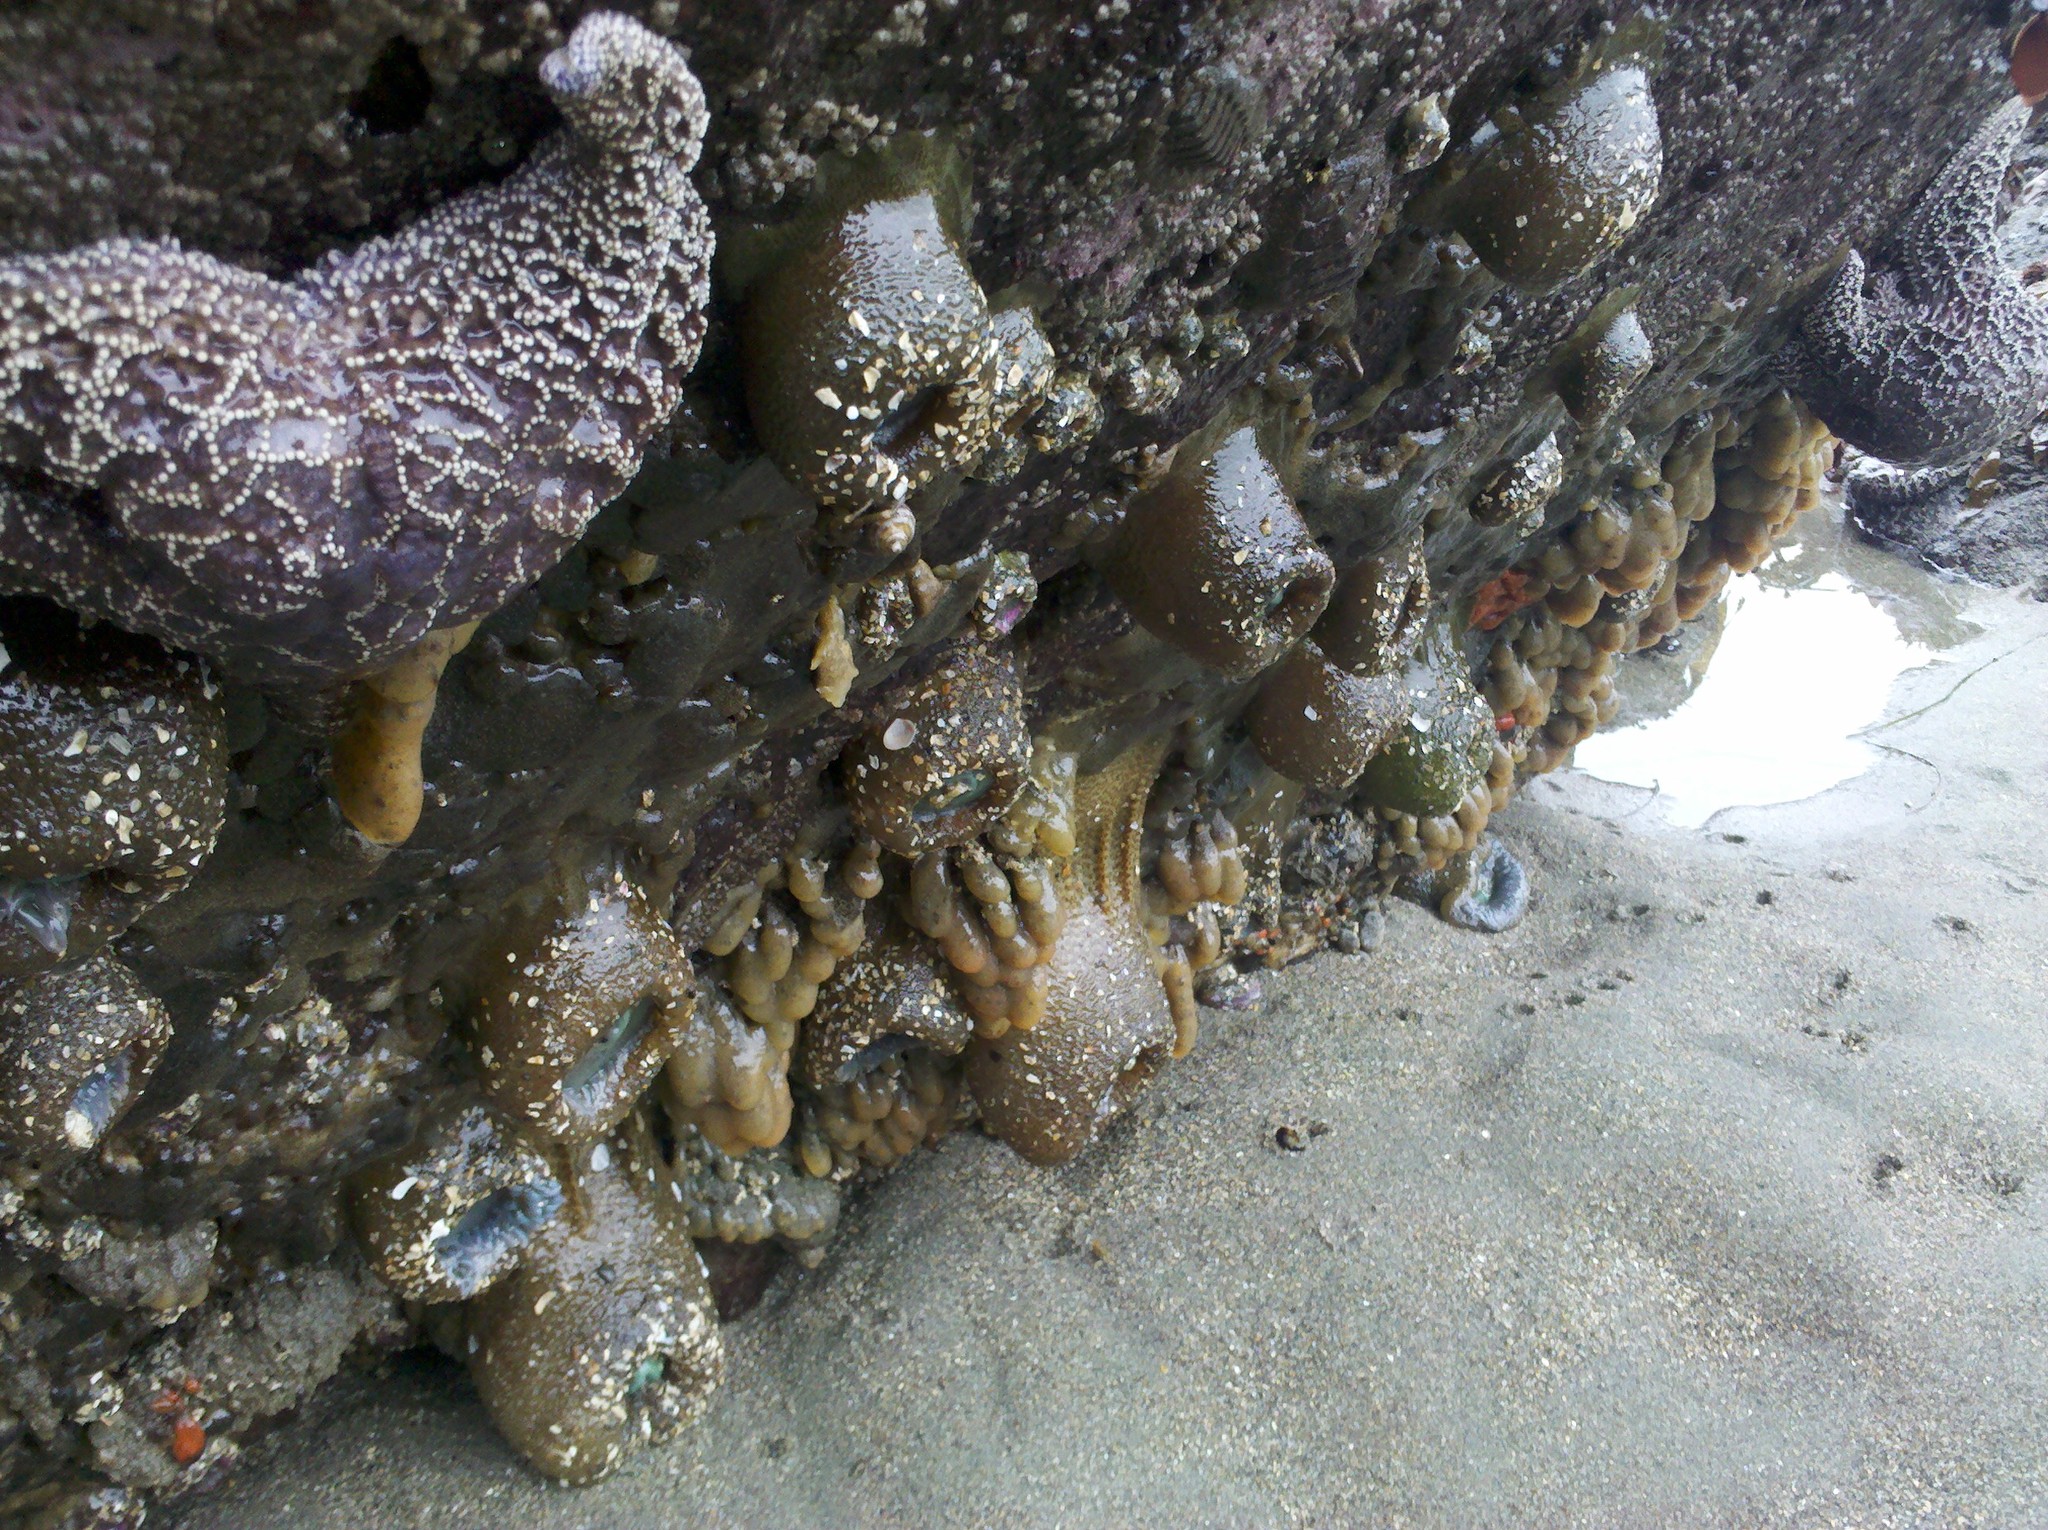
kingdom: Animalia
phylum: Echinodermata
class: Asteroidea
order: Forcipulatida
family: Asteriidae
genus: Pisaster
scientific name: Pisaster ochraceus
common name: Ochre stars
